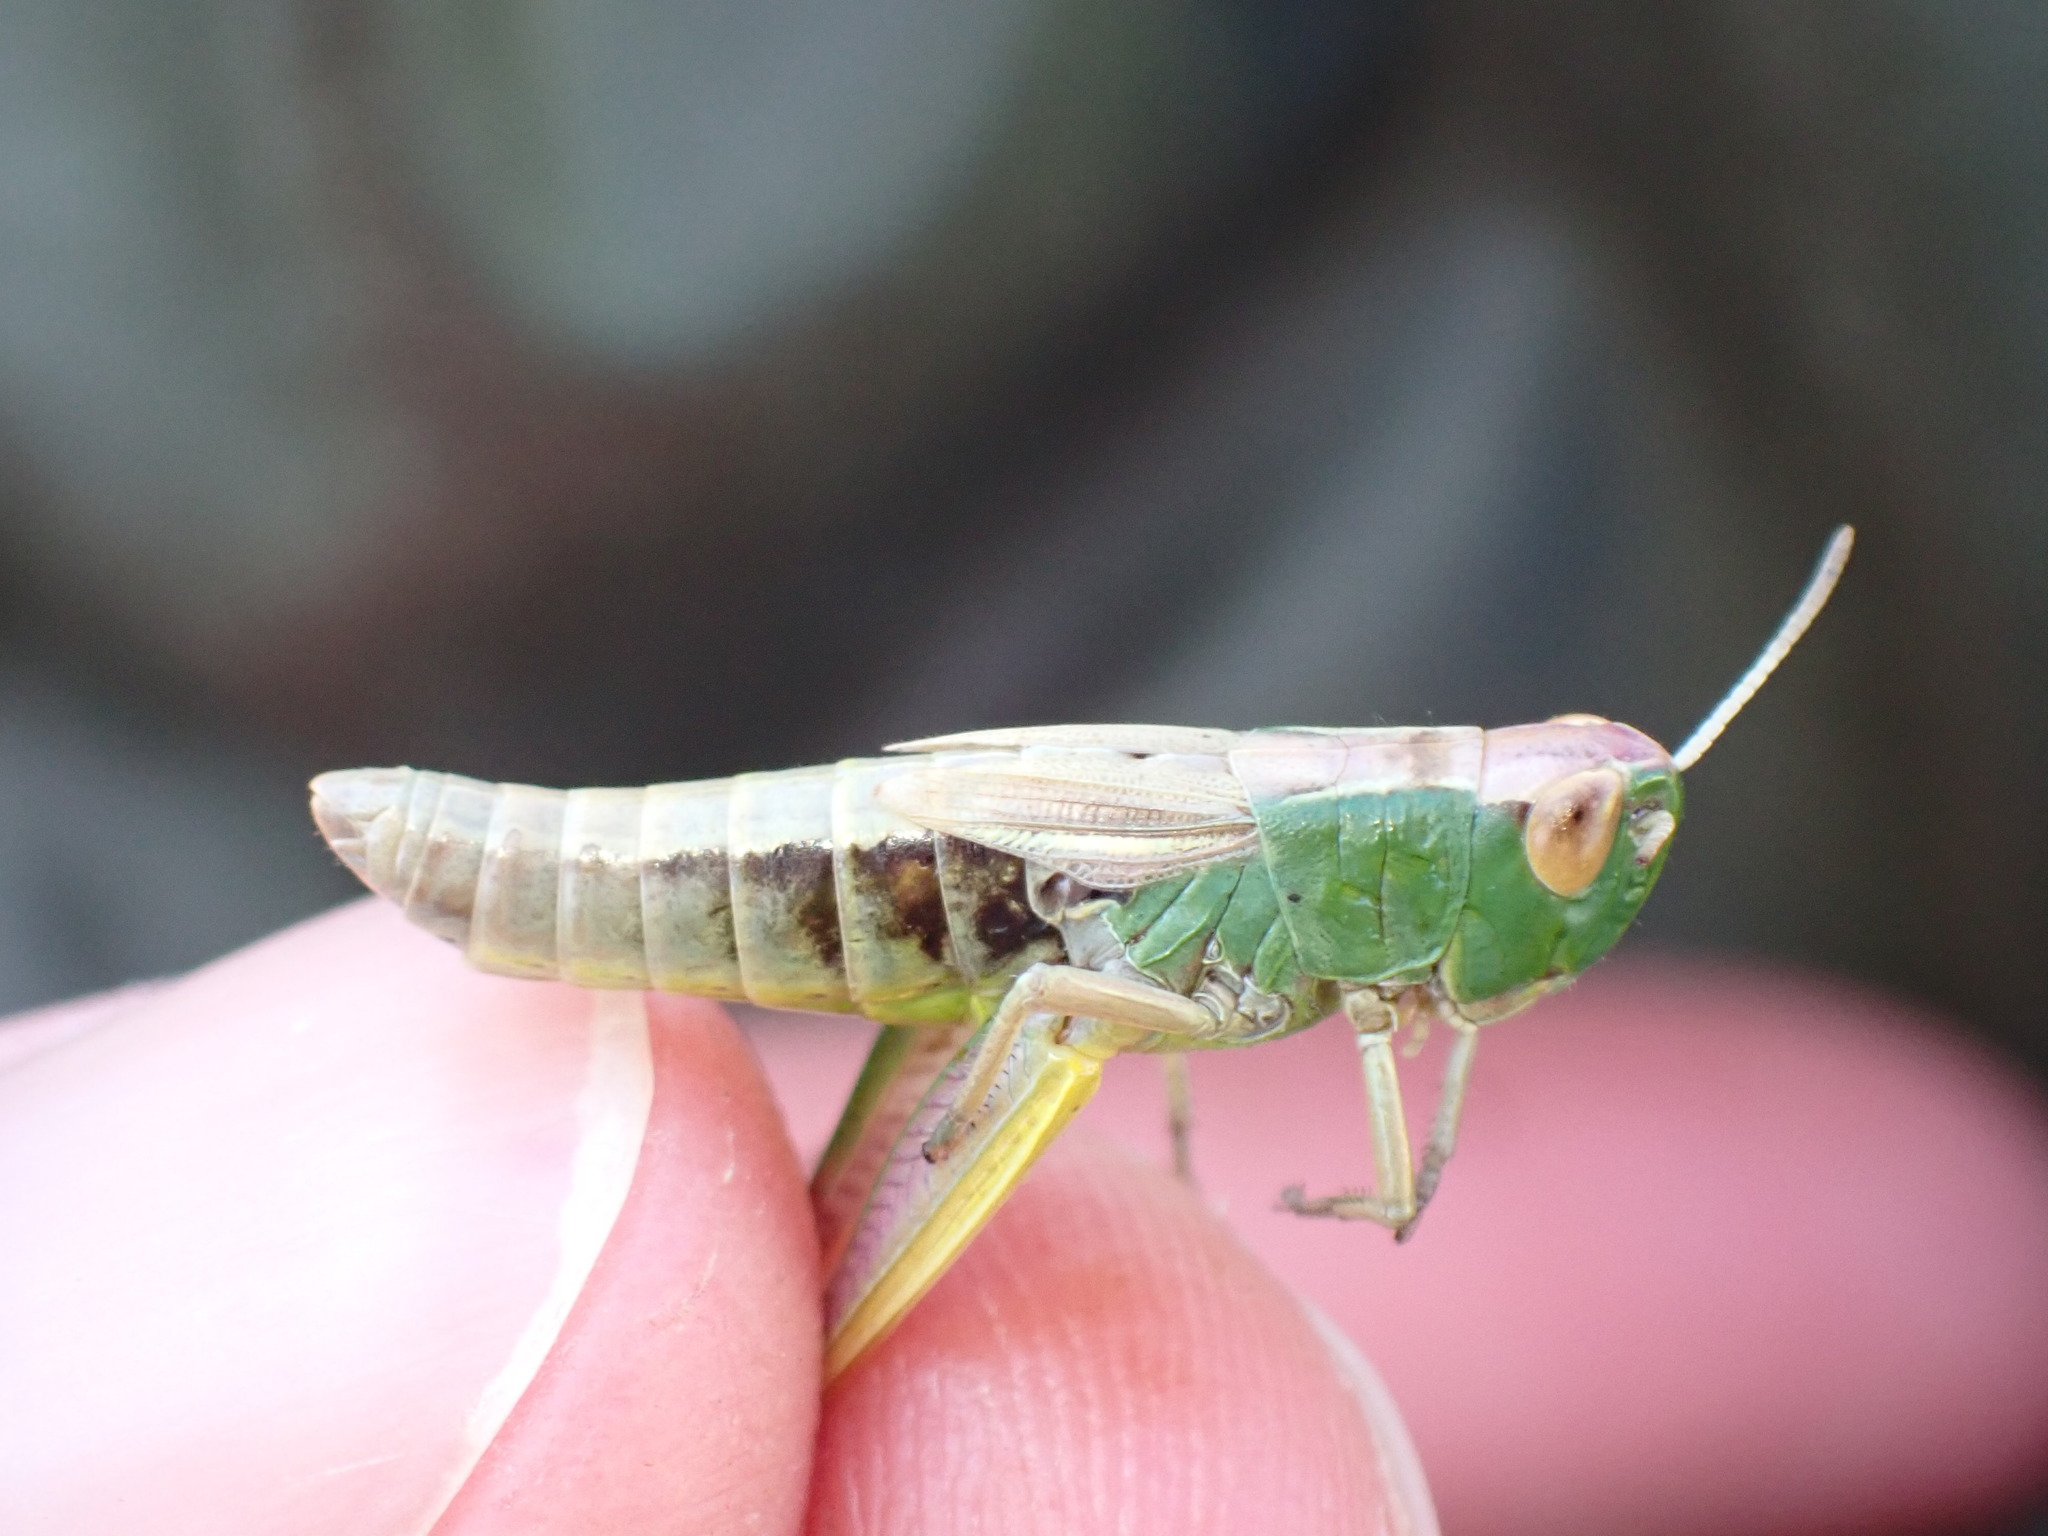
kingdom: Animalia
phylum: Arthropoda
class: Insecta
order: Orthoptera
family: Acrididae
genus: Pseudochorthippus
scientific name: Pseudochorthippus parallelus
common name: Meadow grasshopper
